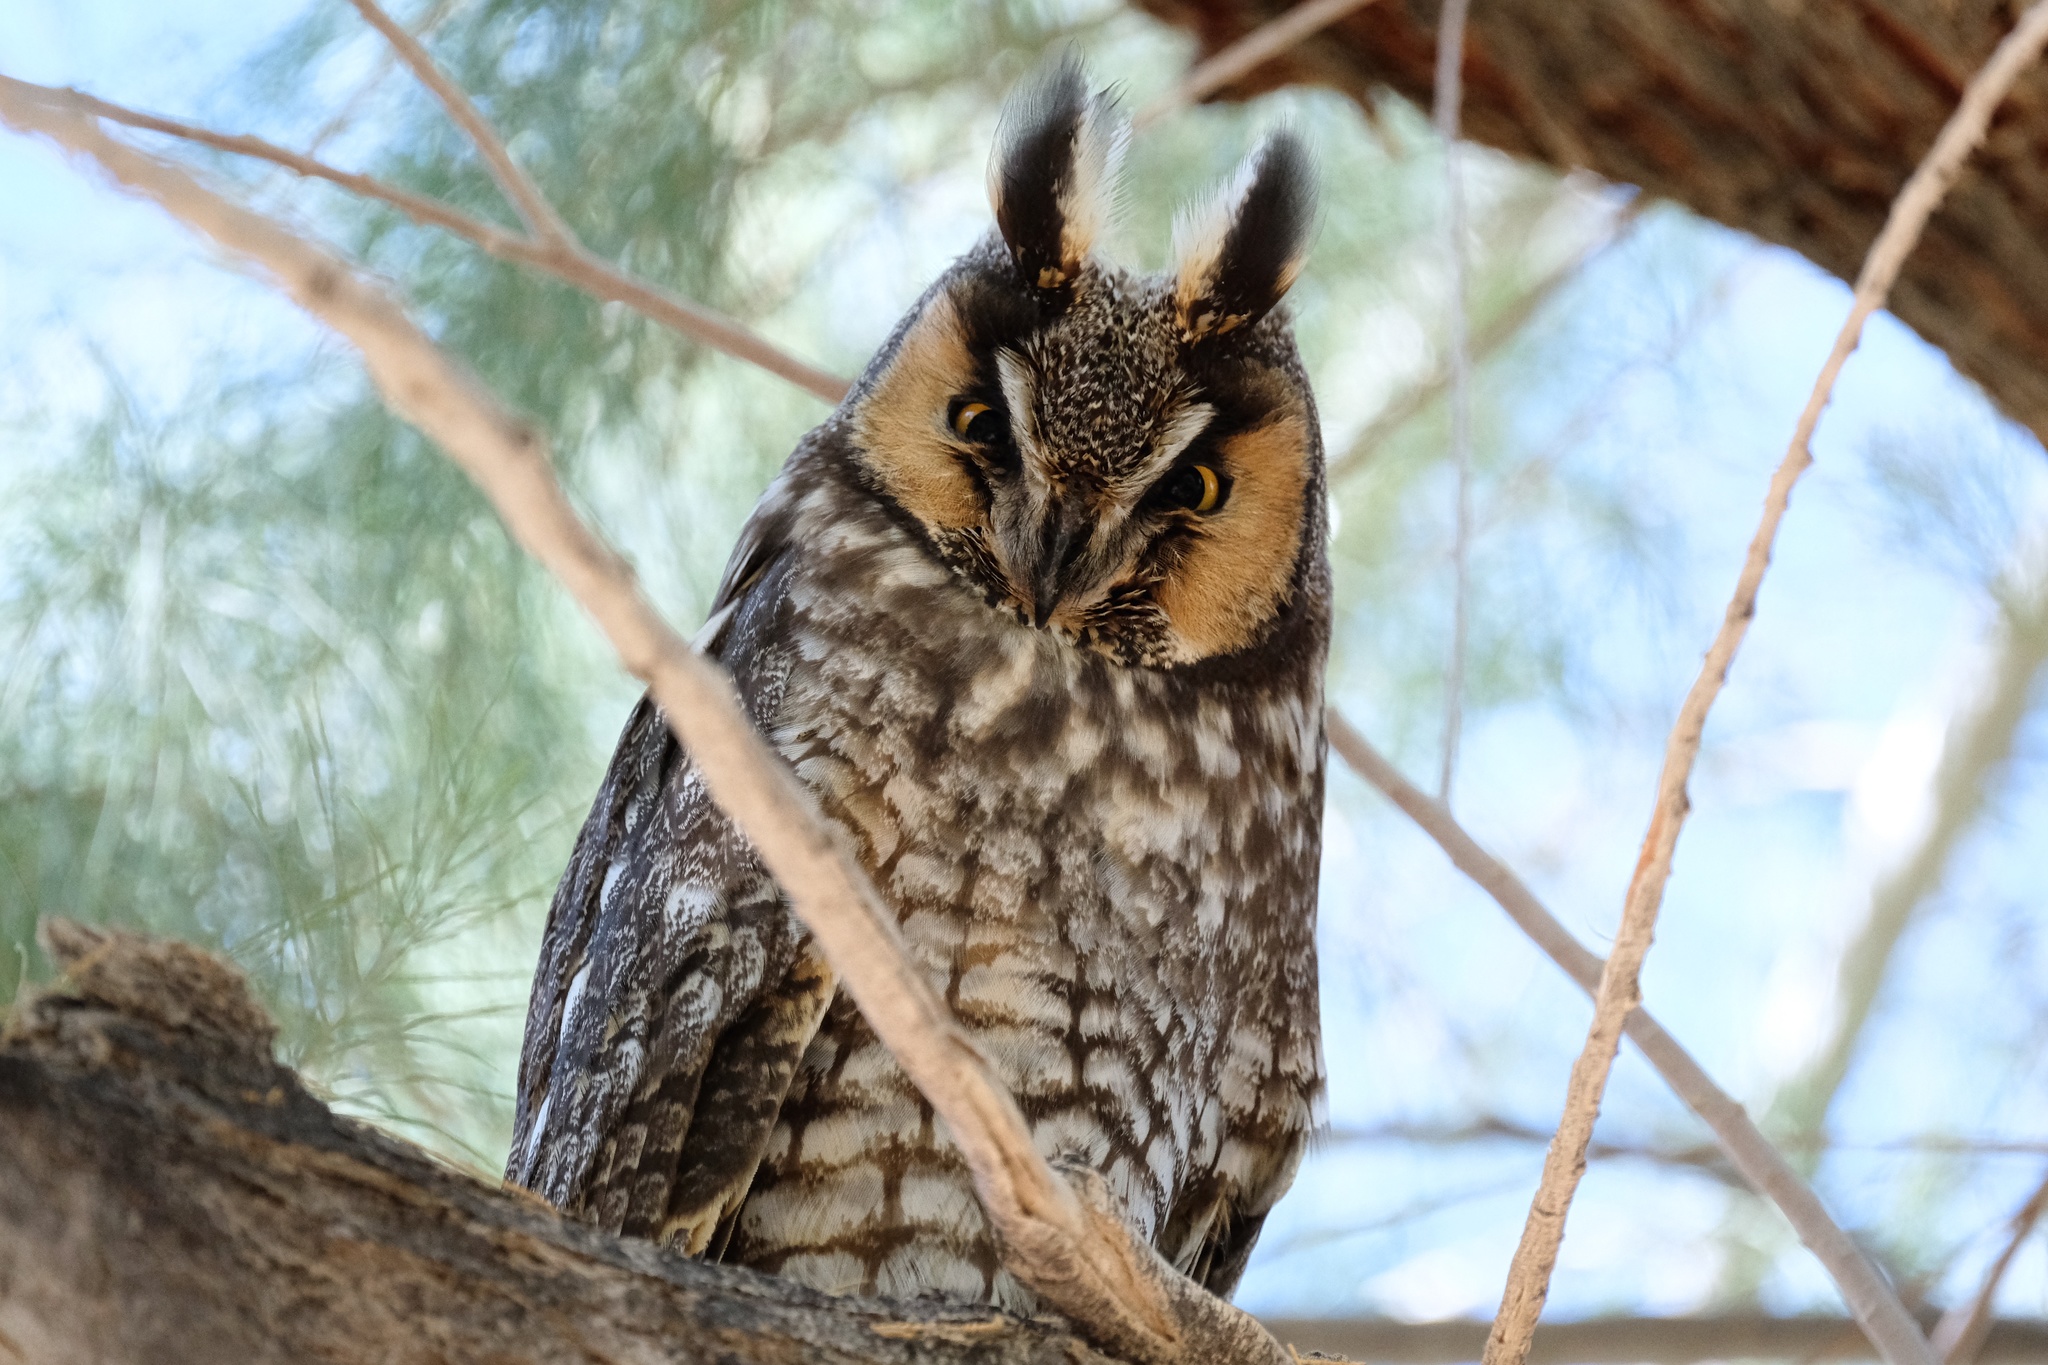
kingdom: Animalia
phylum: Chordata
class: Aves
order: Strigiformes
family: Strigidae
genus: Asio
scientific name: Asio otus
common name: Long-eared owl
